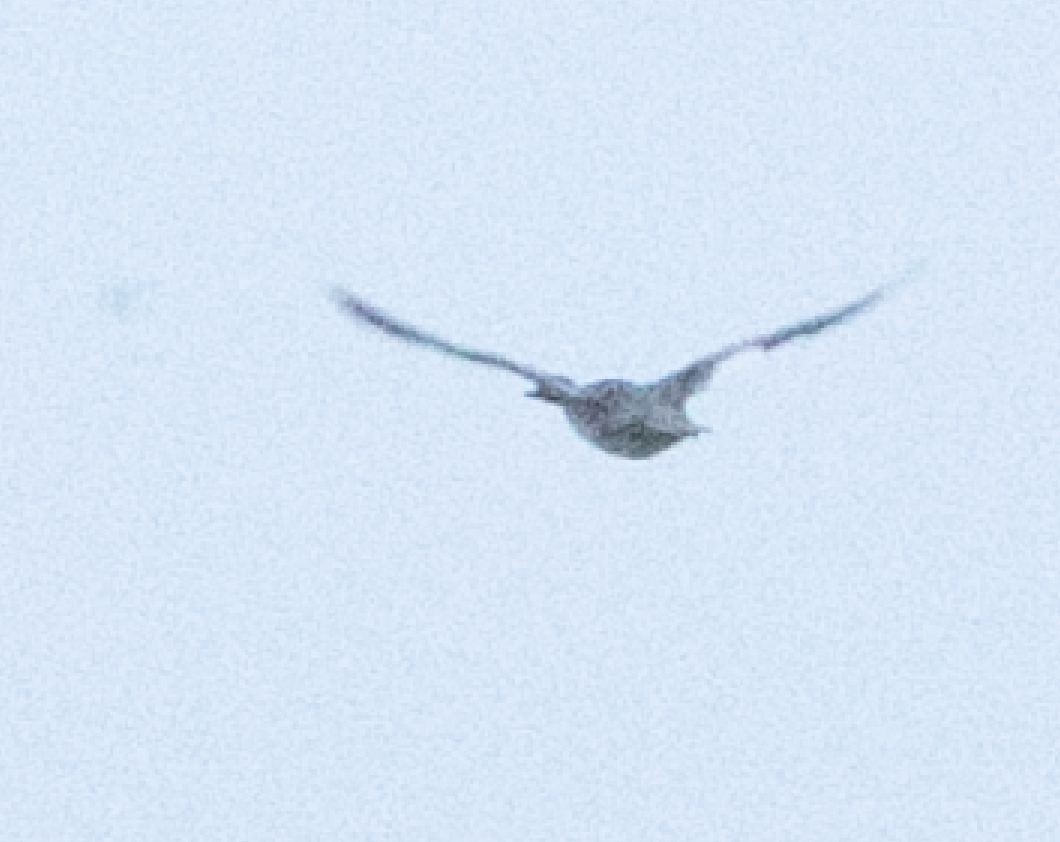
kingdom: Animalia
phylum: Chordata
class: Aves
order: Anseriformes
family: Anatidae
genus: Mergus
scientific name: Mergus merganser
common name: Common merganser
